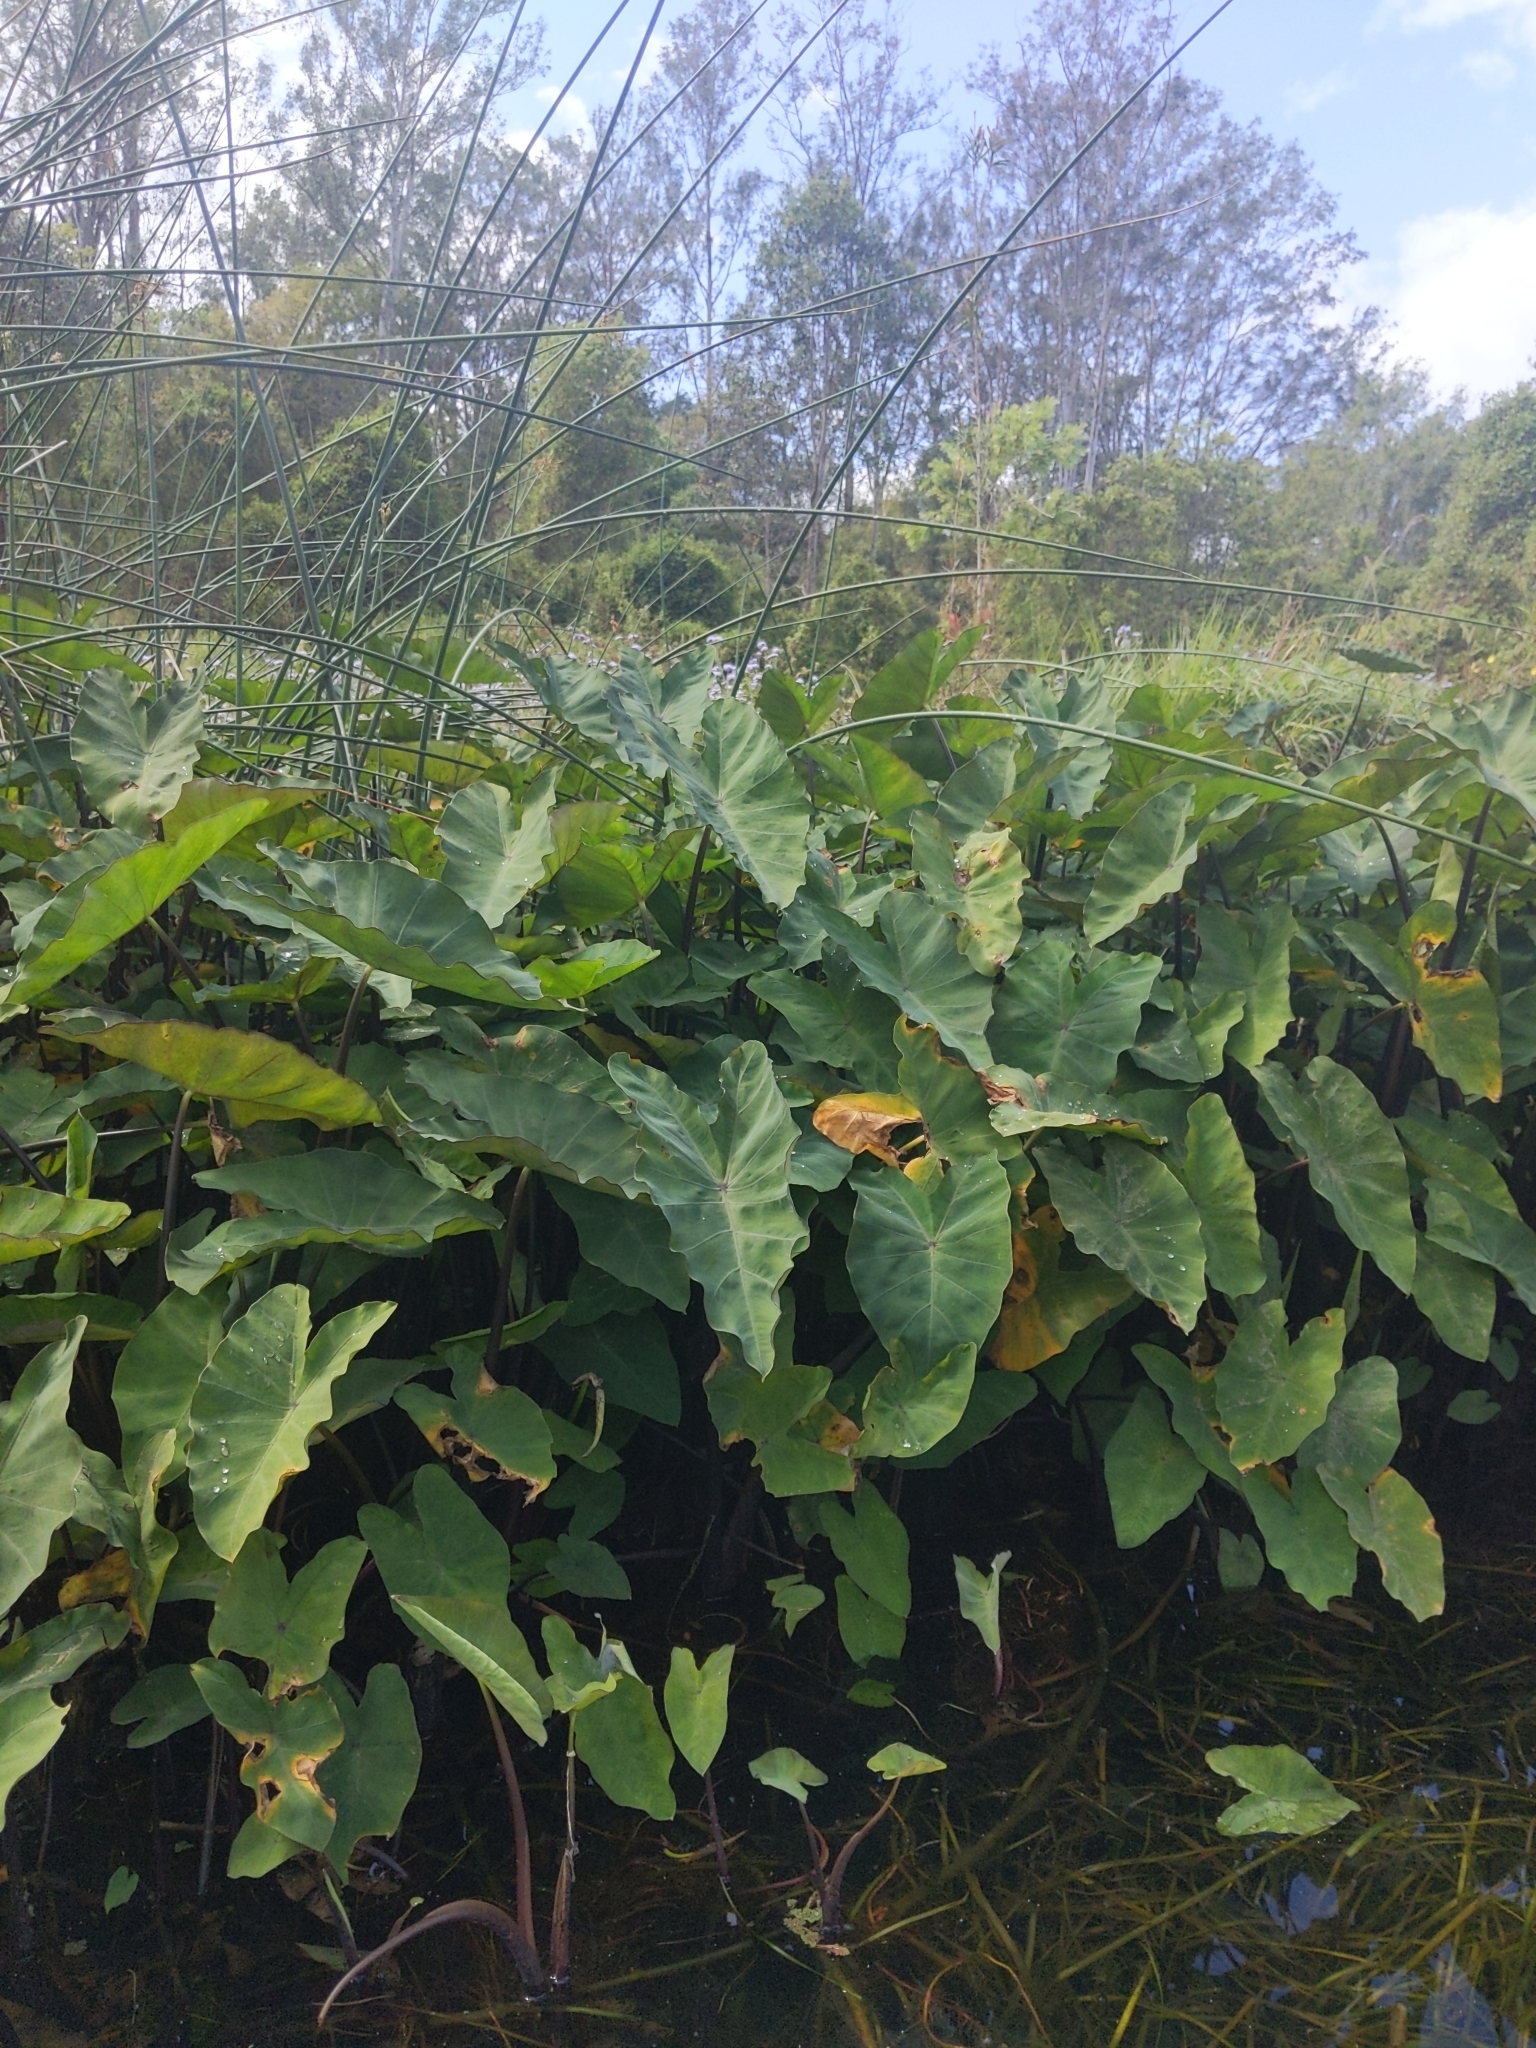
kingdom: Plantae
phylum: Tracheophyta
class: Liliopsida
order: Alismatales
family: Araceae
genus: Colocasia
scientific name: Colocasia esculenta
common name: Taro
